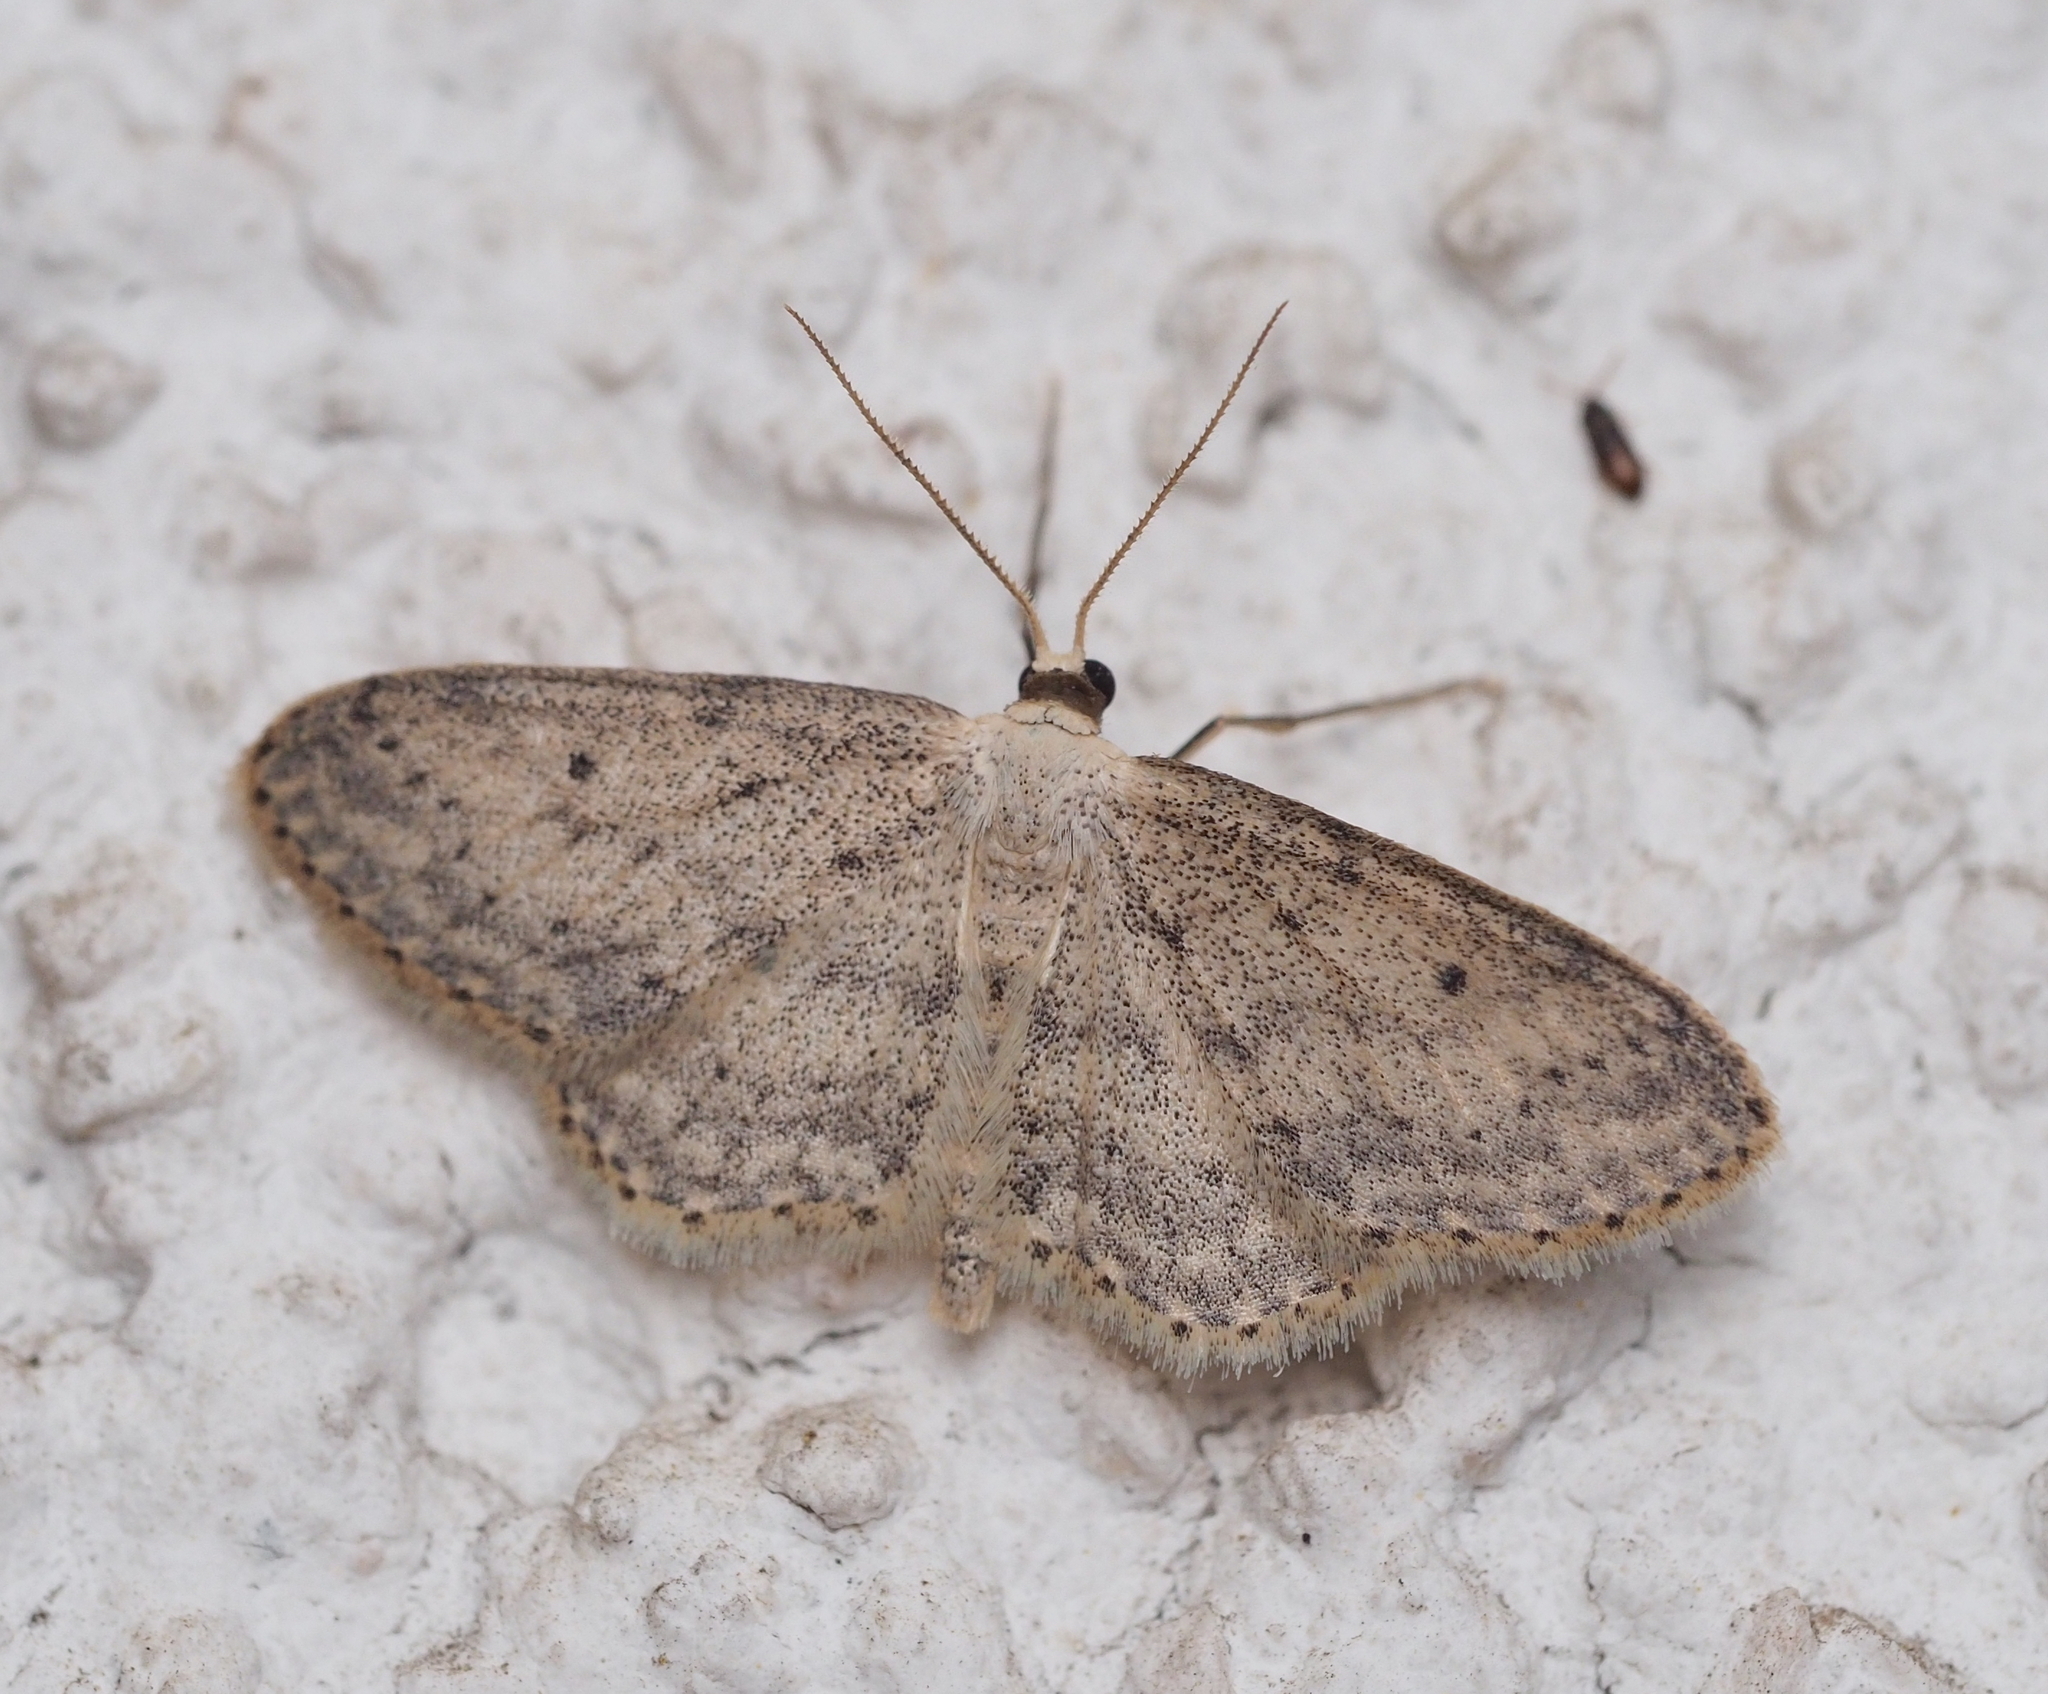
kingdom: Animalia
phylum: Arthropoda
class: Insecta
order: Lepidoptera
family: Geometridae
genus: Idaea
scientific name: Idaea seriata
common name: Small dusty wave
